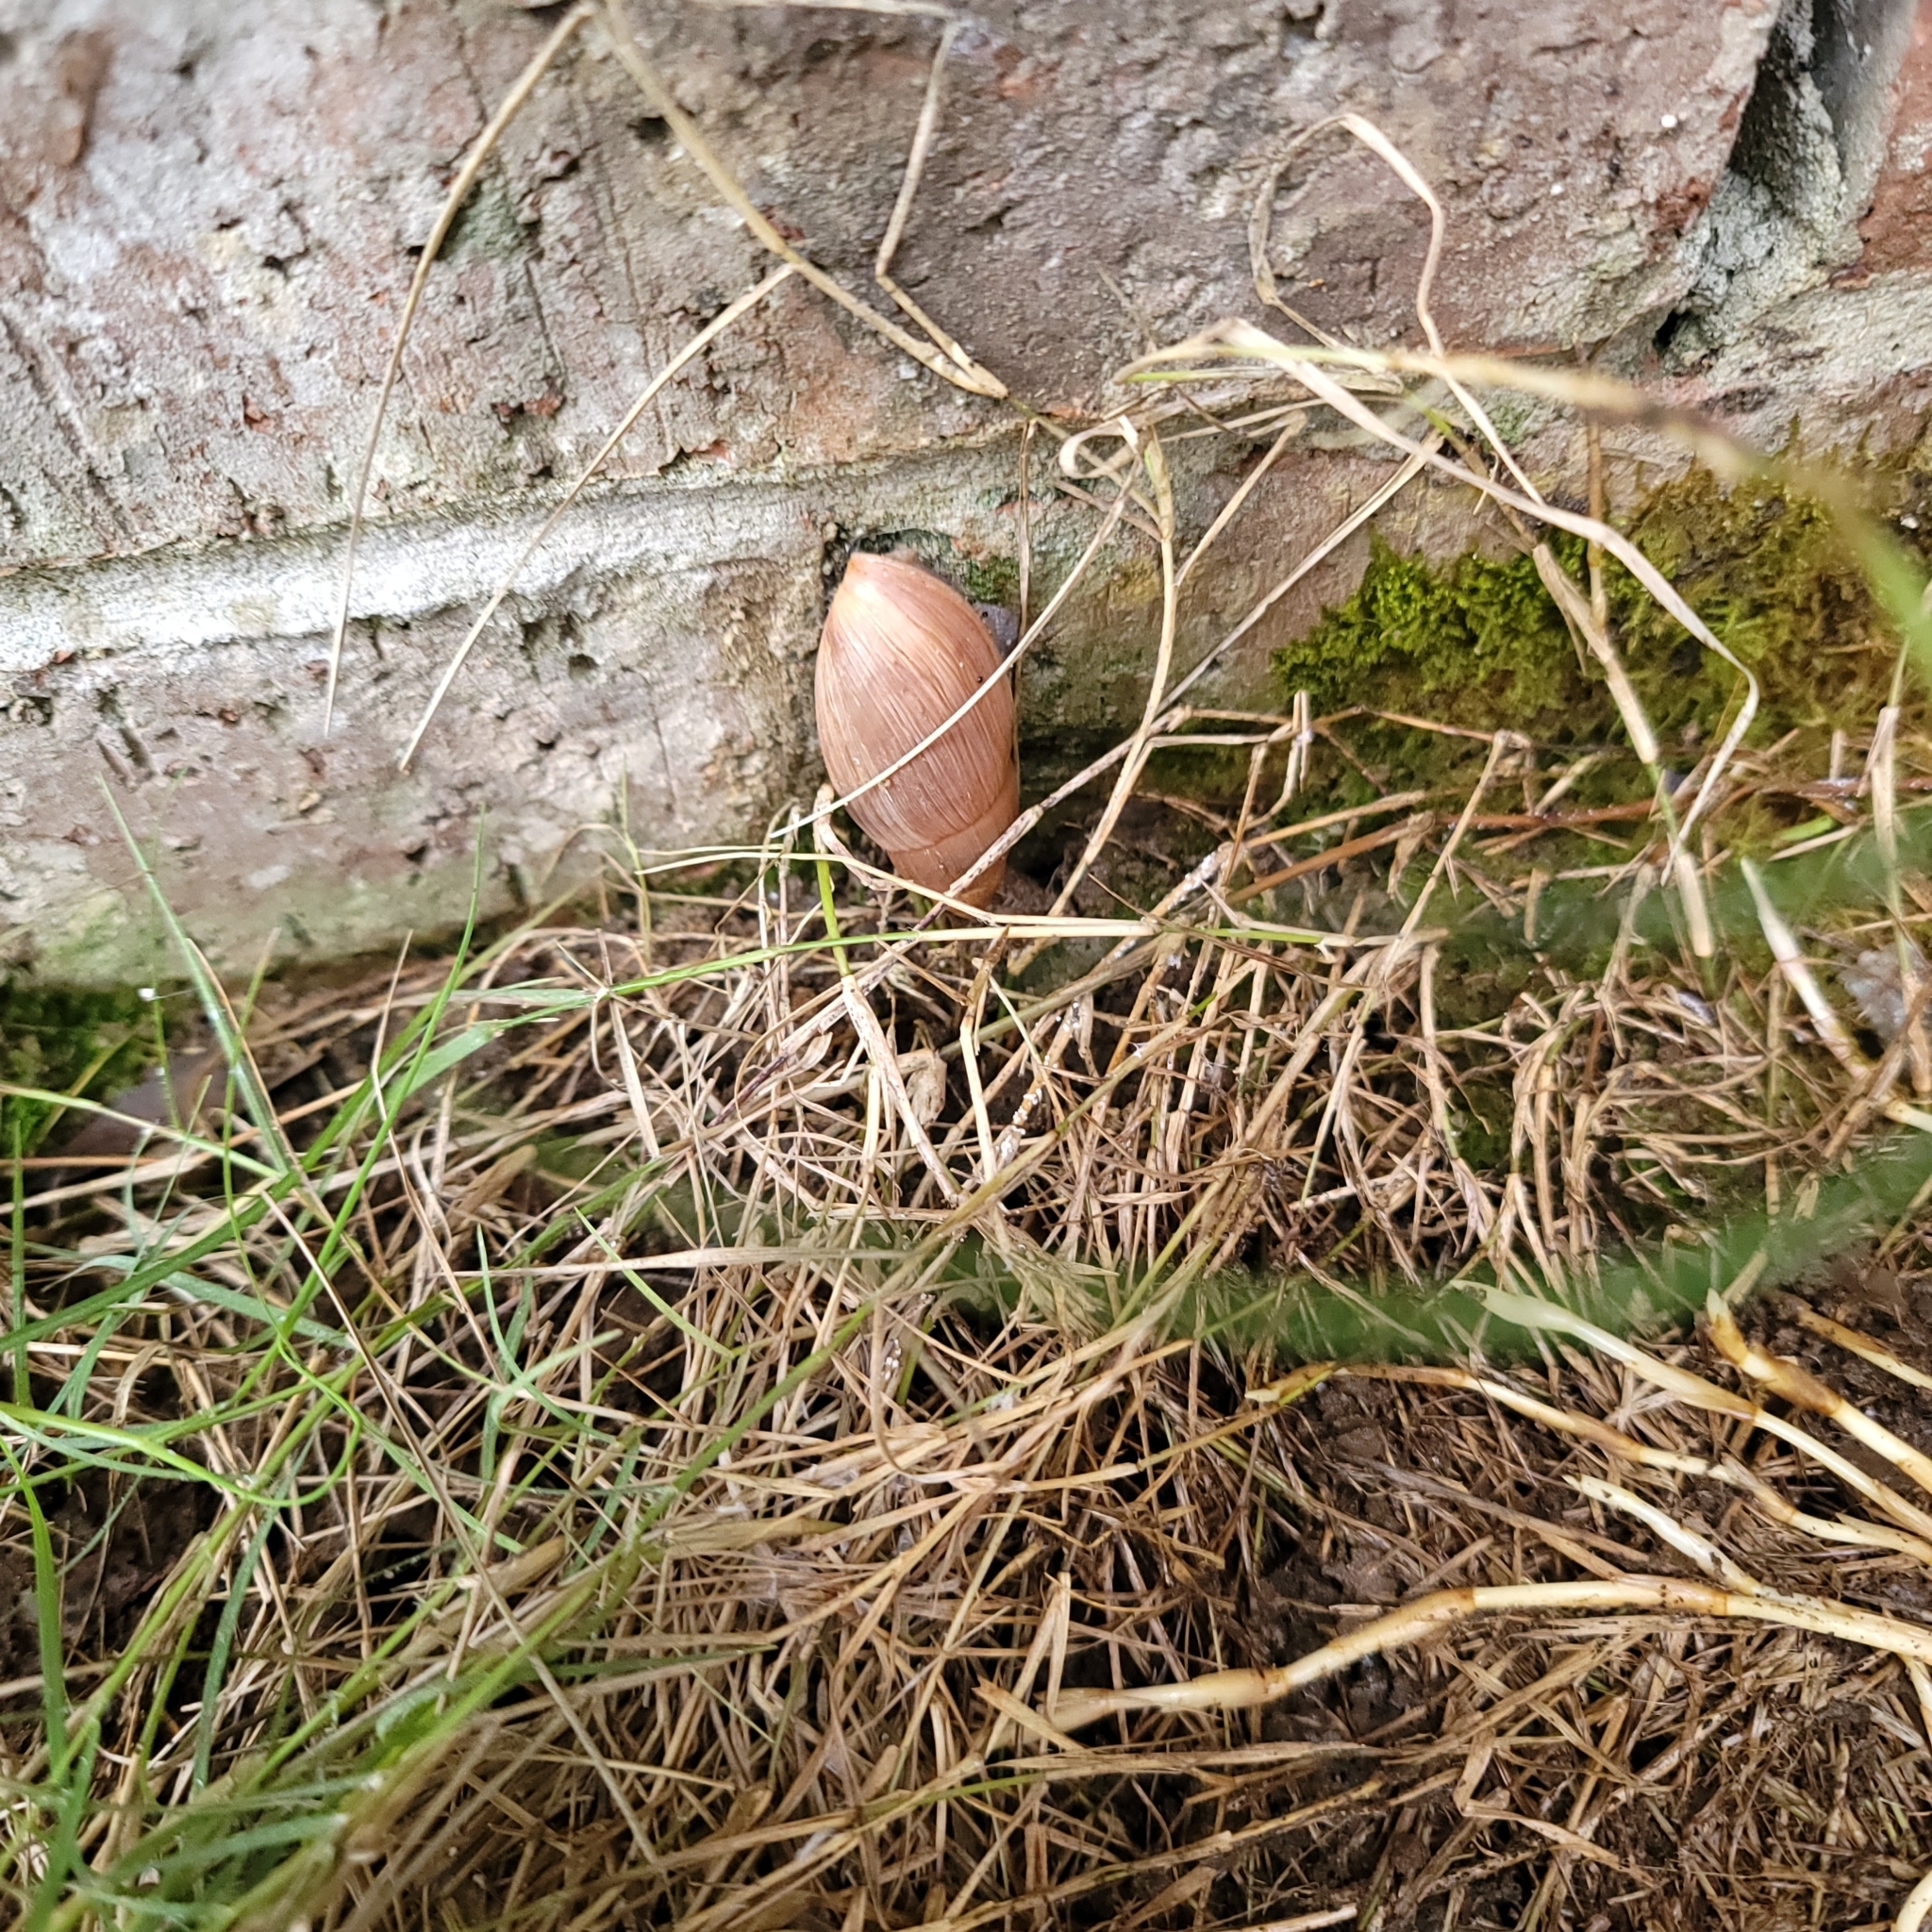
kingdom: Animalia
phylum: Mollusca
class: Gastropoda
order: Stylommatophora
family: Spiraxidae
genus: Euglandina
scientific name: Euglandina rosea
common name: Rosy wolfsnail
